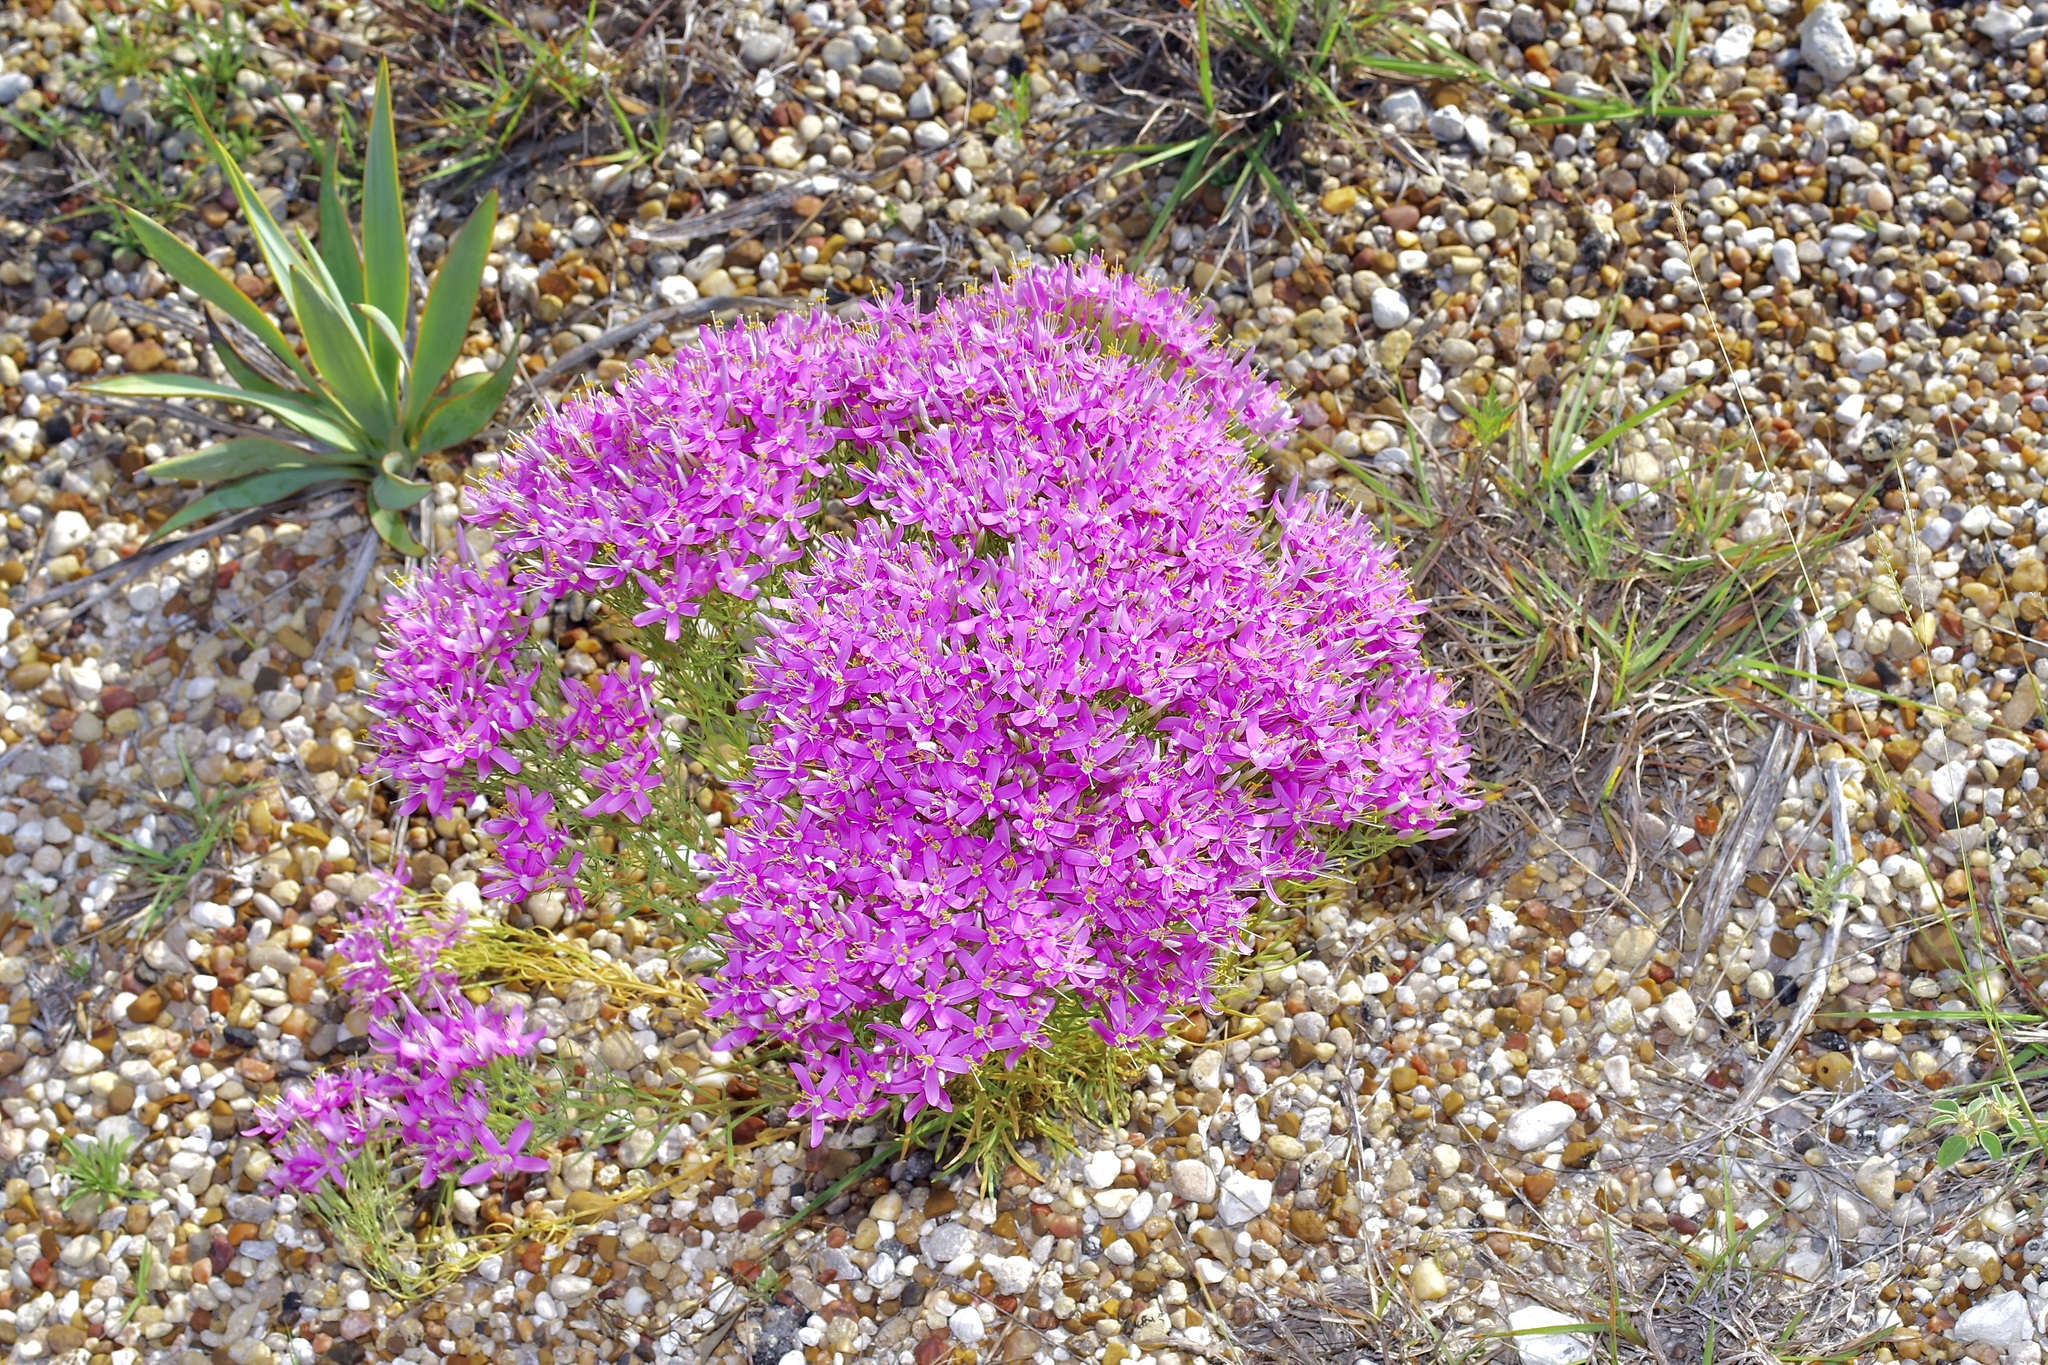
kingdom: Plantae
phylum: Tracheophyta
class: Magnoliopsida
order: Gentianales
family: Gentianaceae
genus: Zeltnera
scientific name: Zeltnera beyrichii
